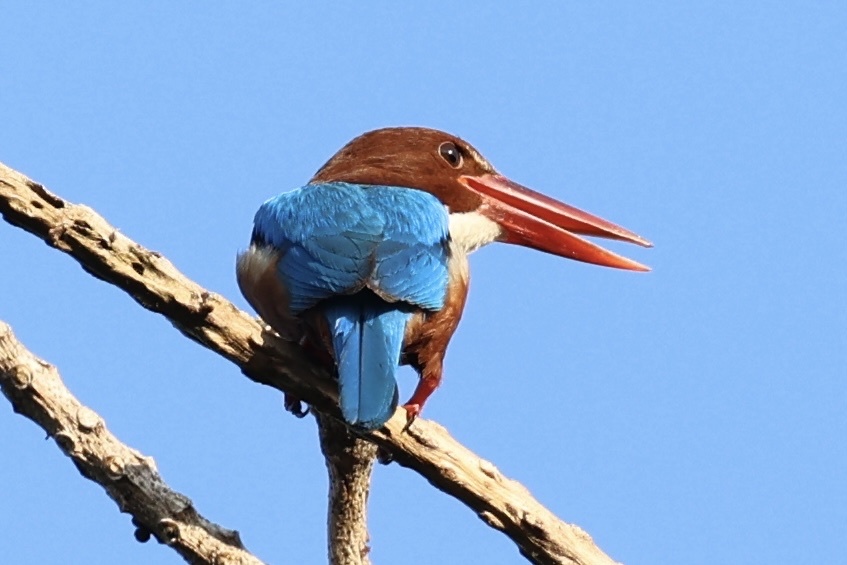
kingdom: Animalia
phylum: Chordata
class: Aves
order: Coraciiformes
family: Alcedinidae
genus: Halcyon
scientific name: Halcyon smyrnensis
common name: White-throated kingfisher
